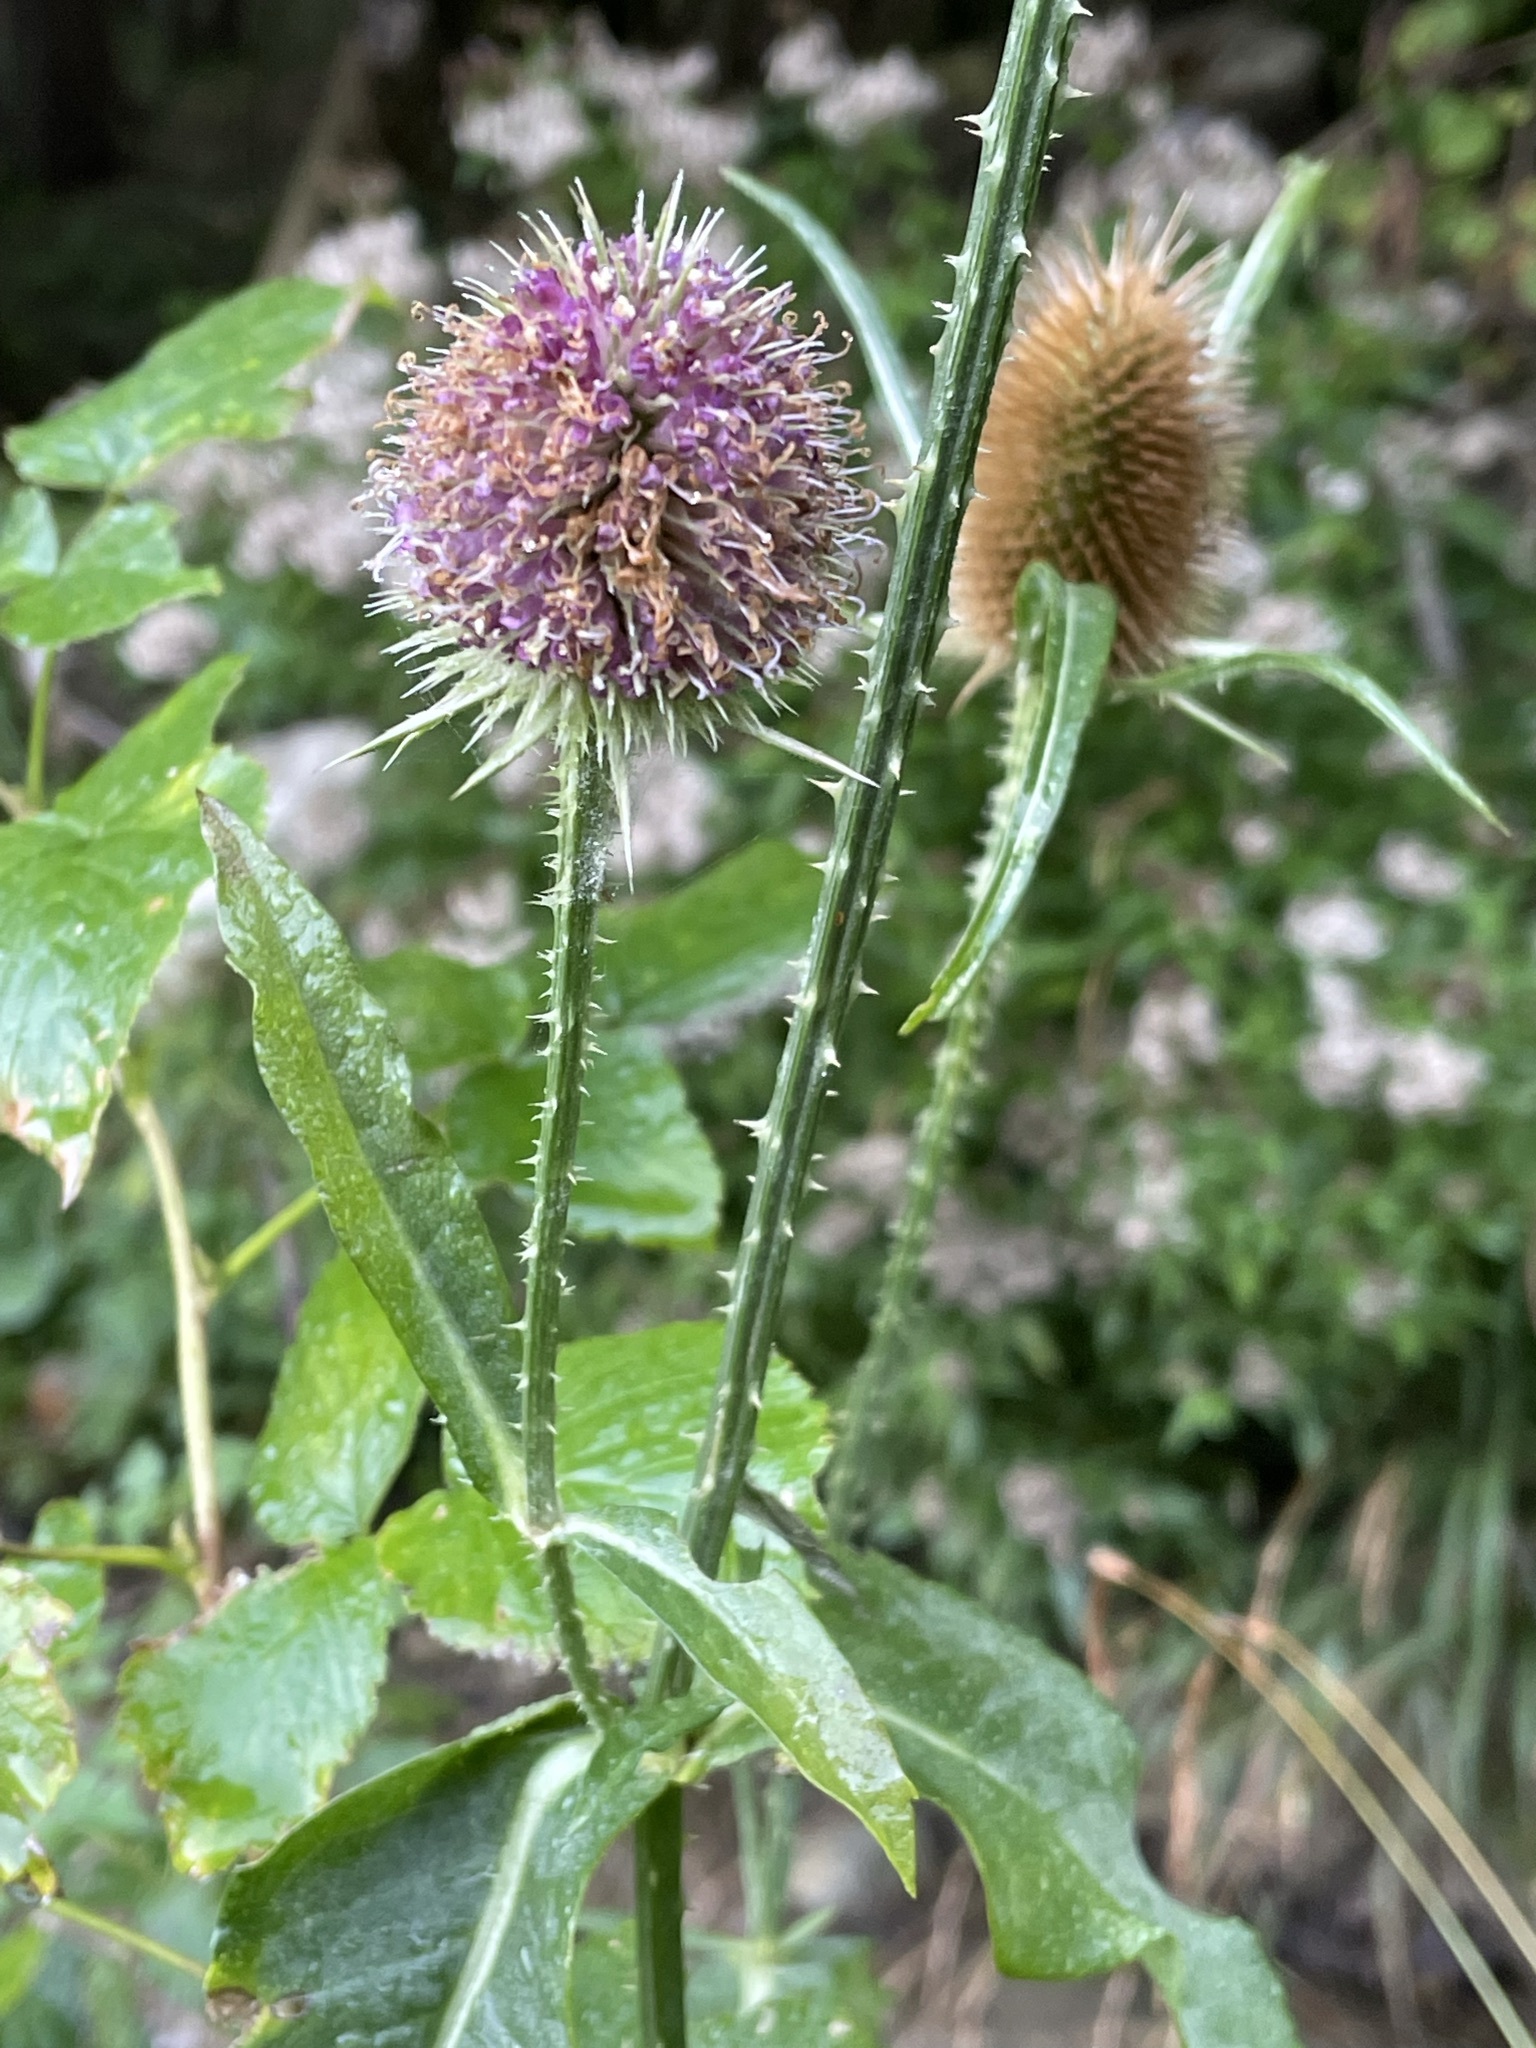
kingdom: Plantae
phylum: Tracheophyta
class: Magnoliopsida
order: Dipsacales
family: Caprifoliaceae
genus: Dipsacus
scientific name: Dipsacus fullonum
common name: Teasel
